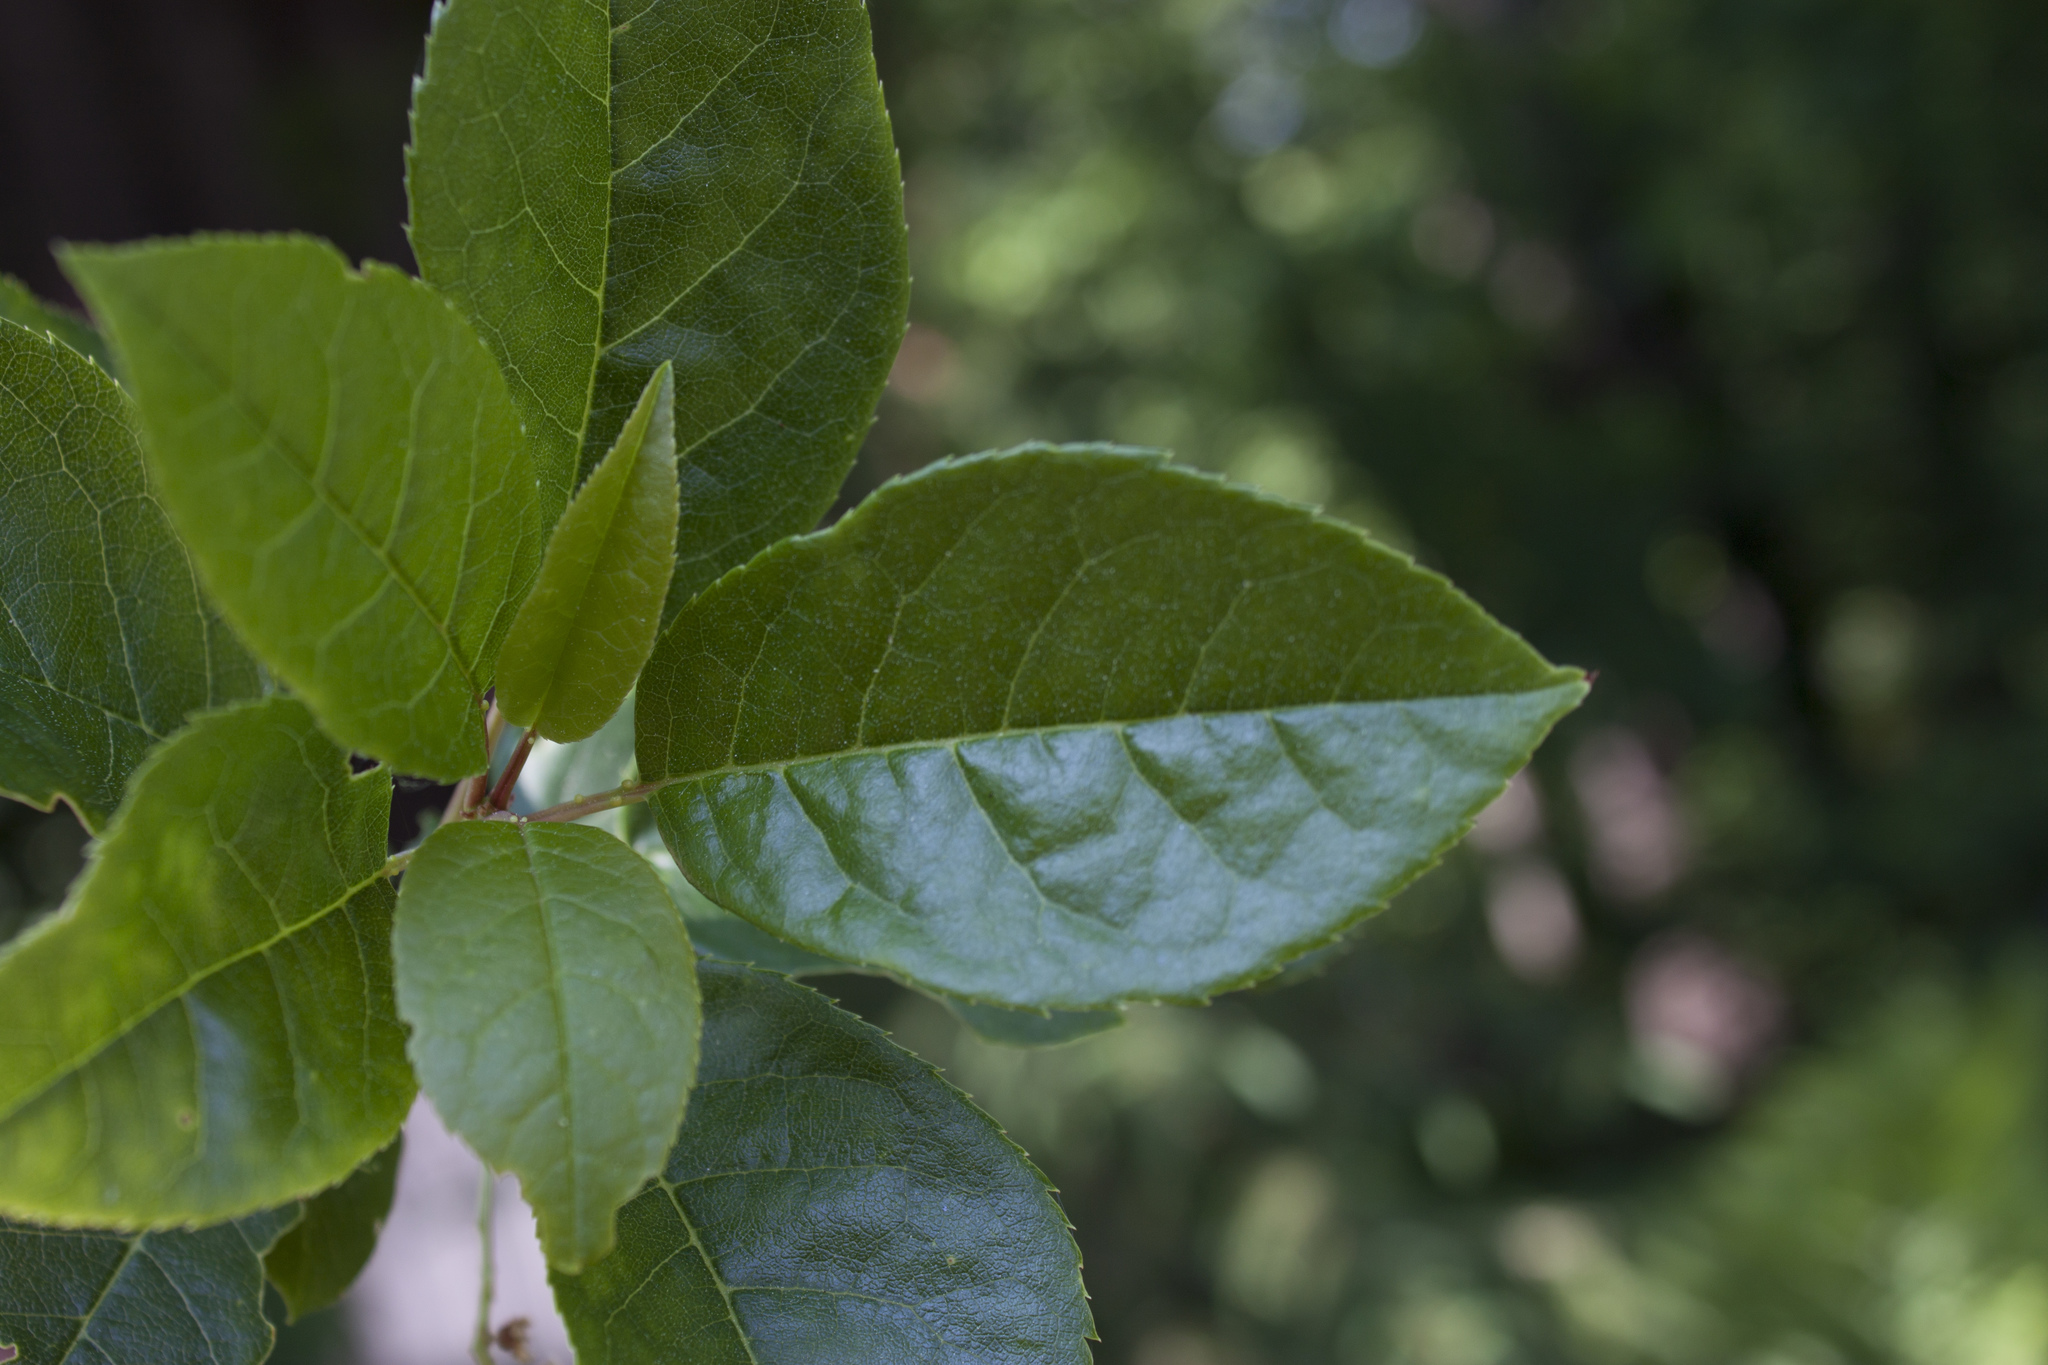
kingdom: Plantae
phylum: Tracheophyta
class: Magnoliopsida
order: Rosales
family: Rosaceae
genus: Prunus
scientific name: Prunus virginiana
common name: Chokecherry
